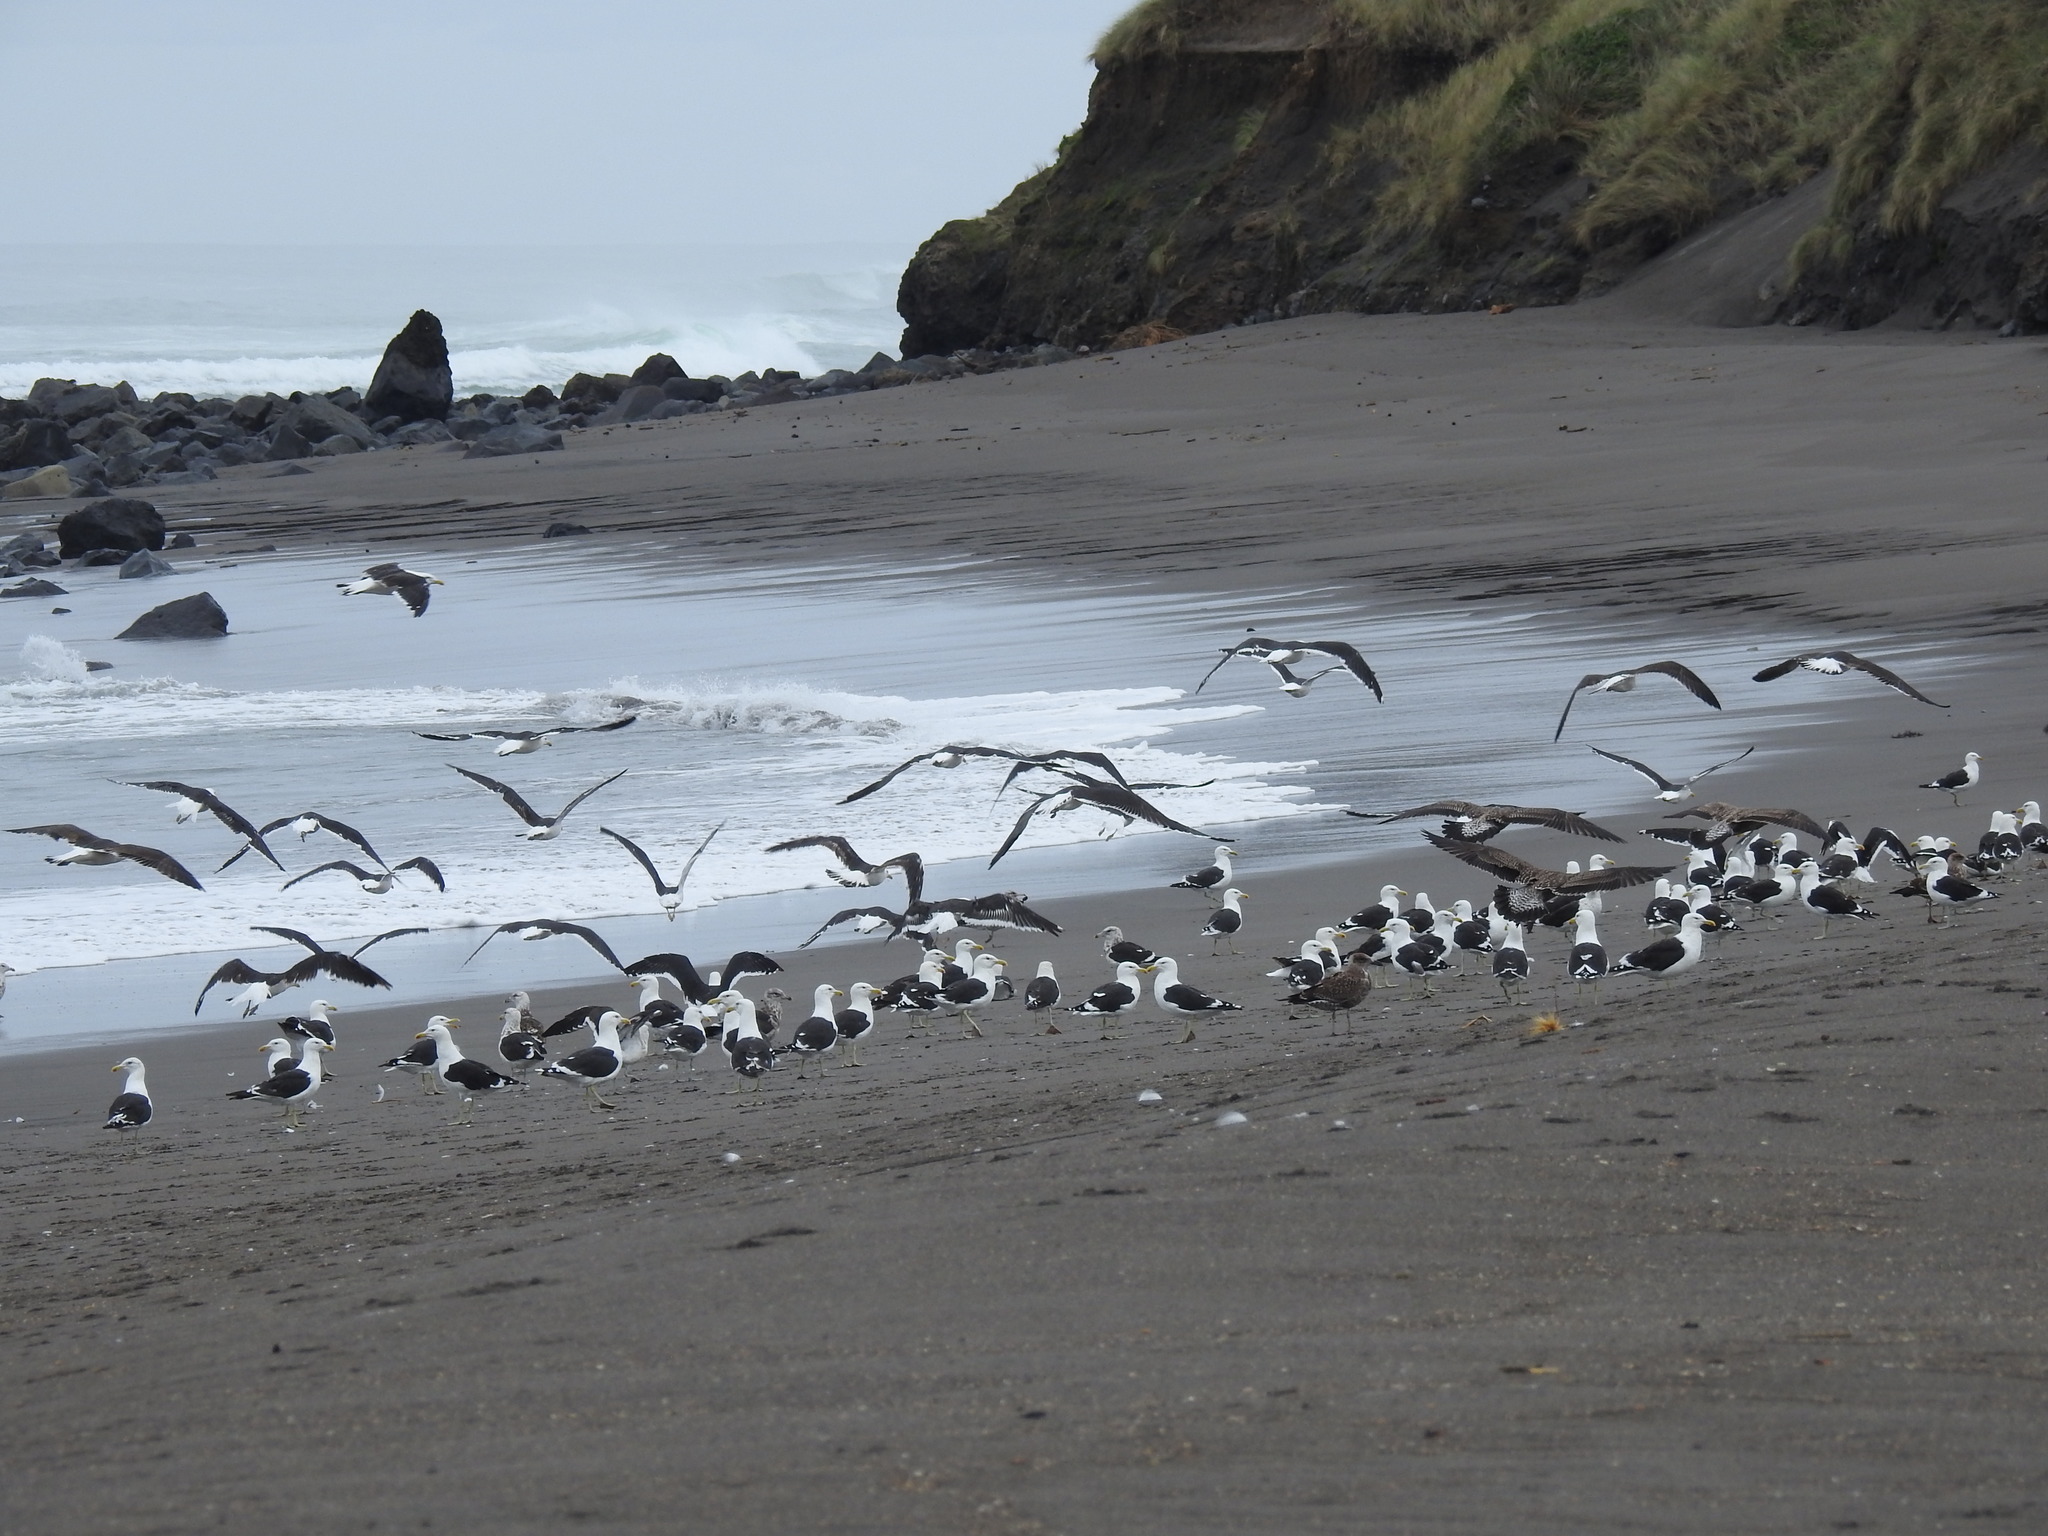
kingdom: Animalia
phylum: Chordata
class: Aves
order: Charadriiformes
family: Laridae
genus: Larus
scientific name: Larus dominicanus
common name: Kelp gull
